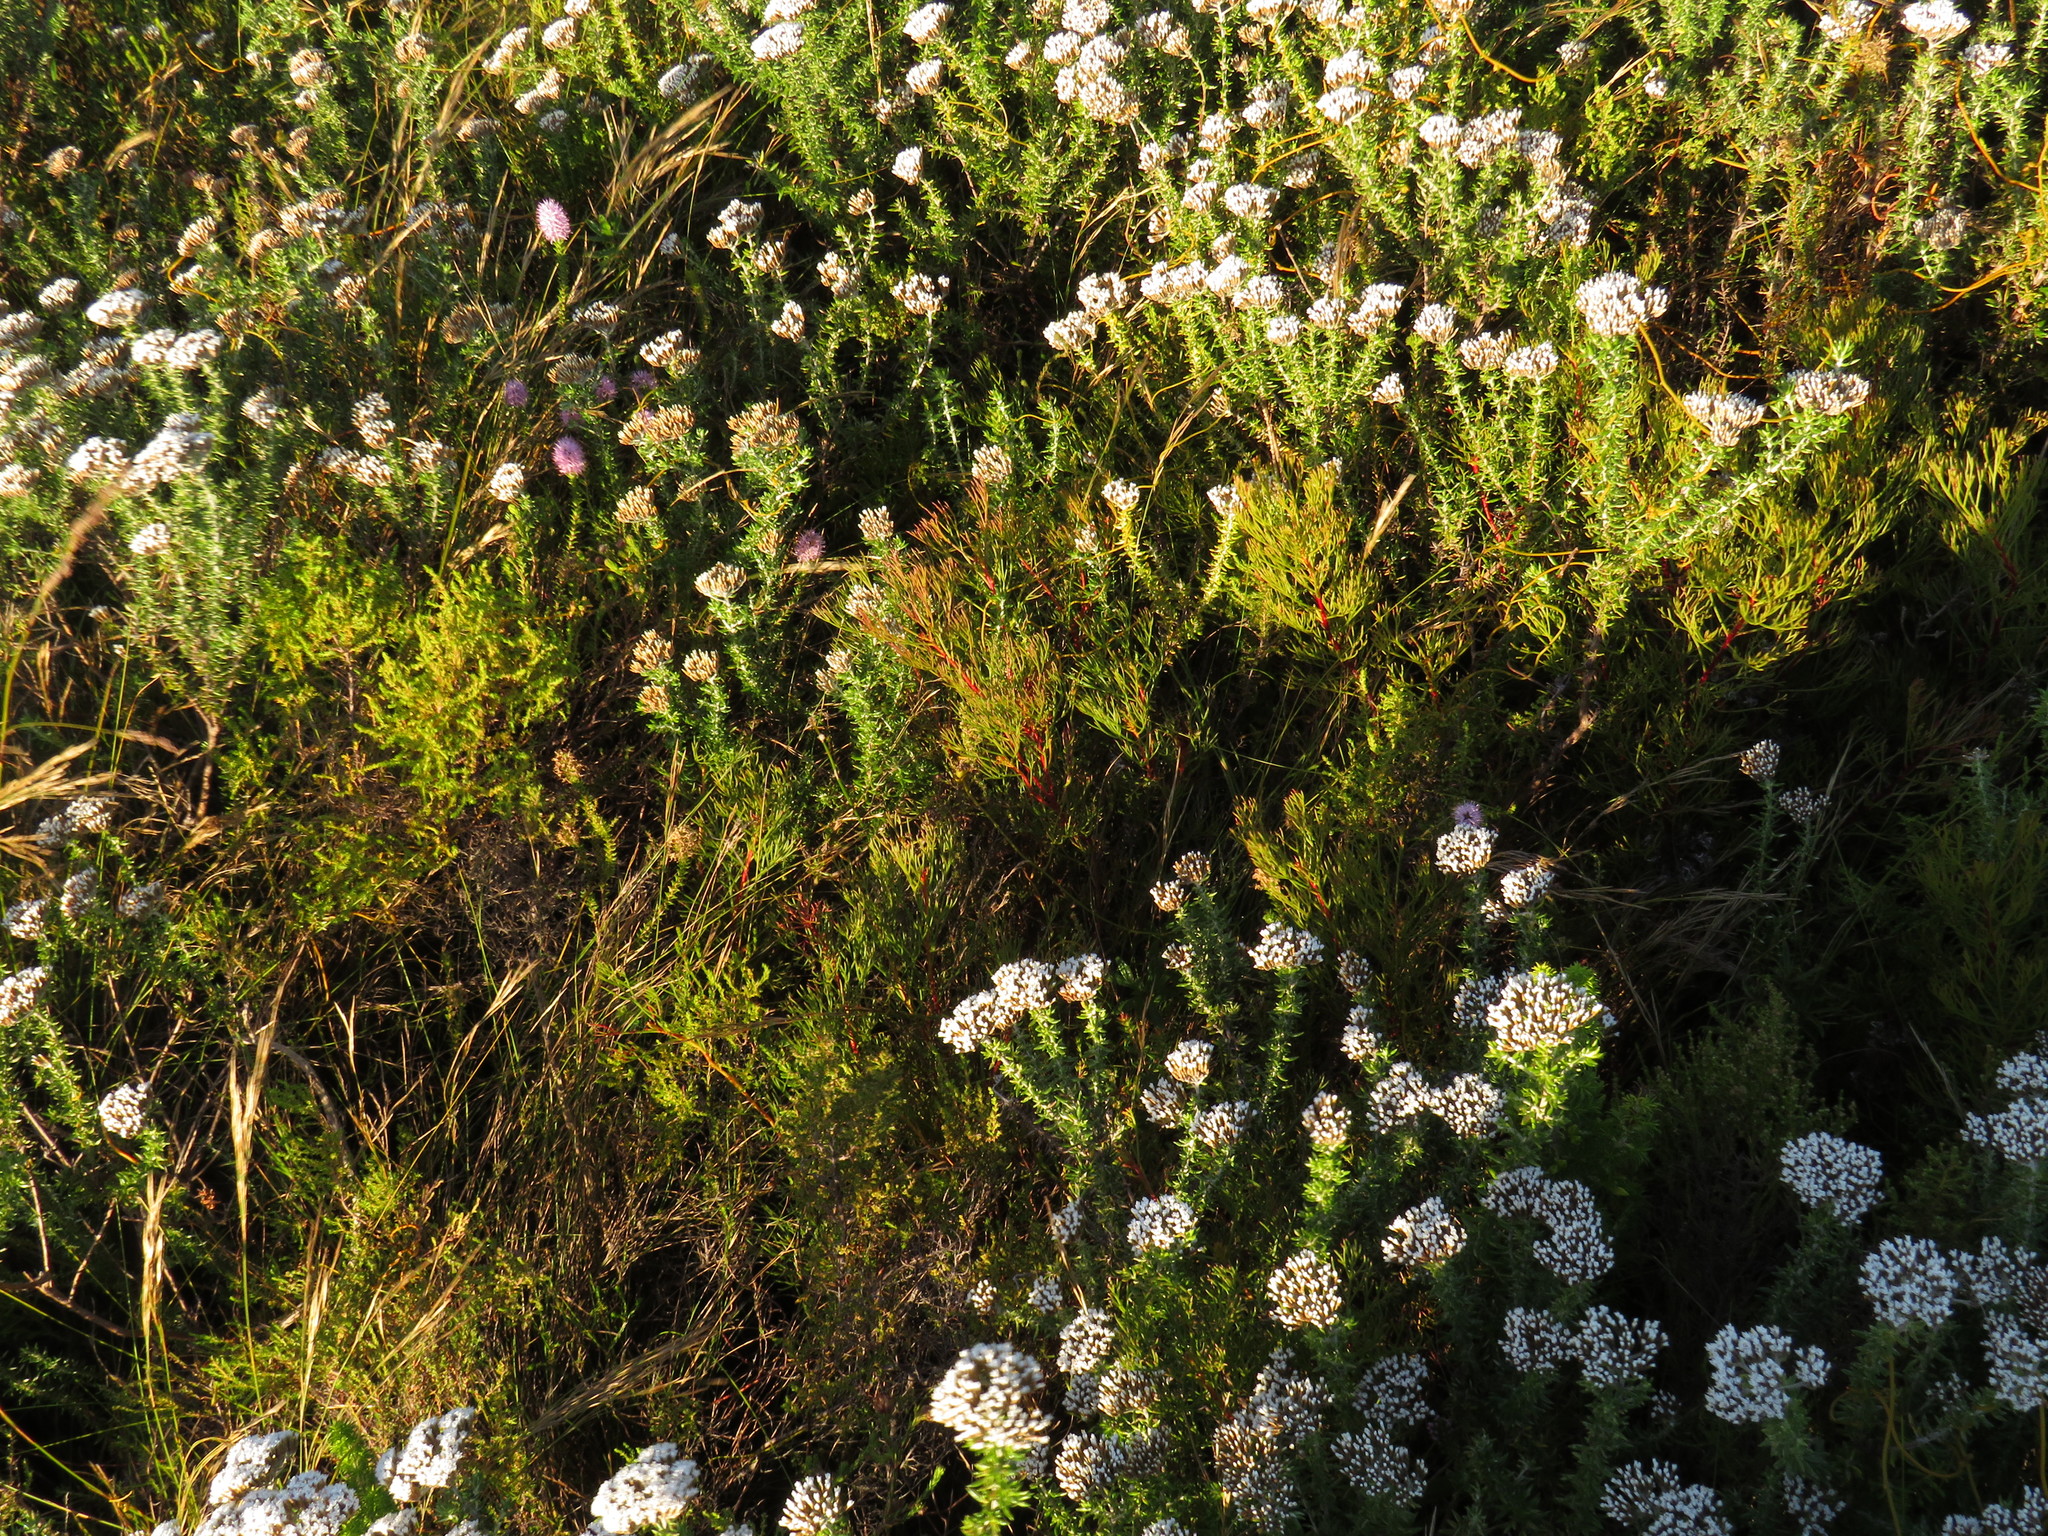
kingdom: Plantae
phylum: Tracheophyta
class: Magnoliopsida
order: Proteales
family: Proteaceae
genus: Serruria
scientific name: Serruria ascendens
